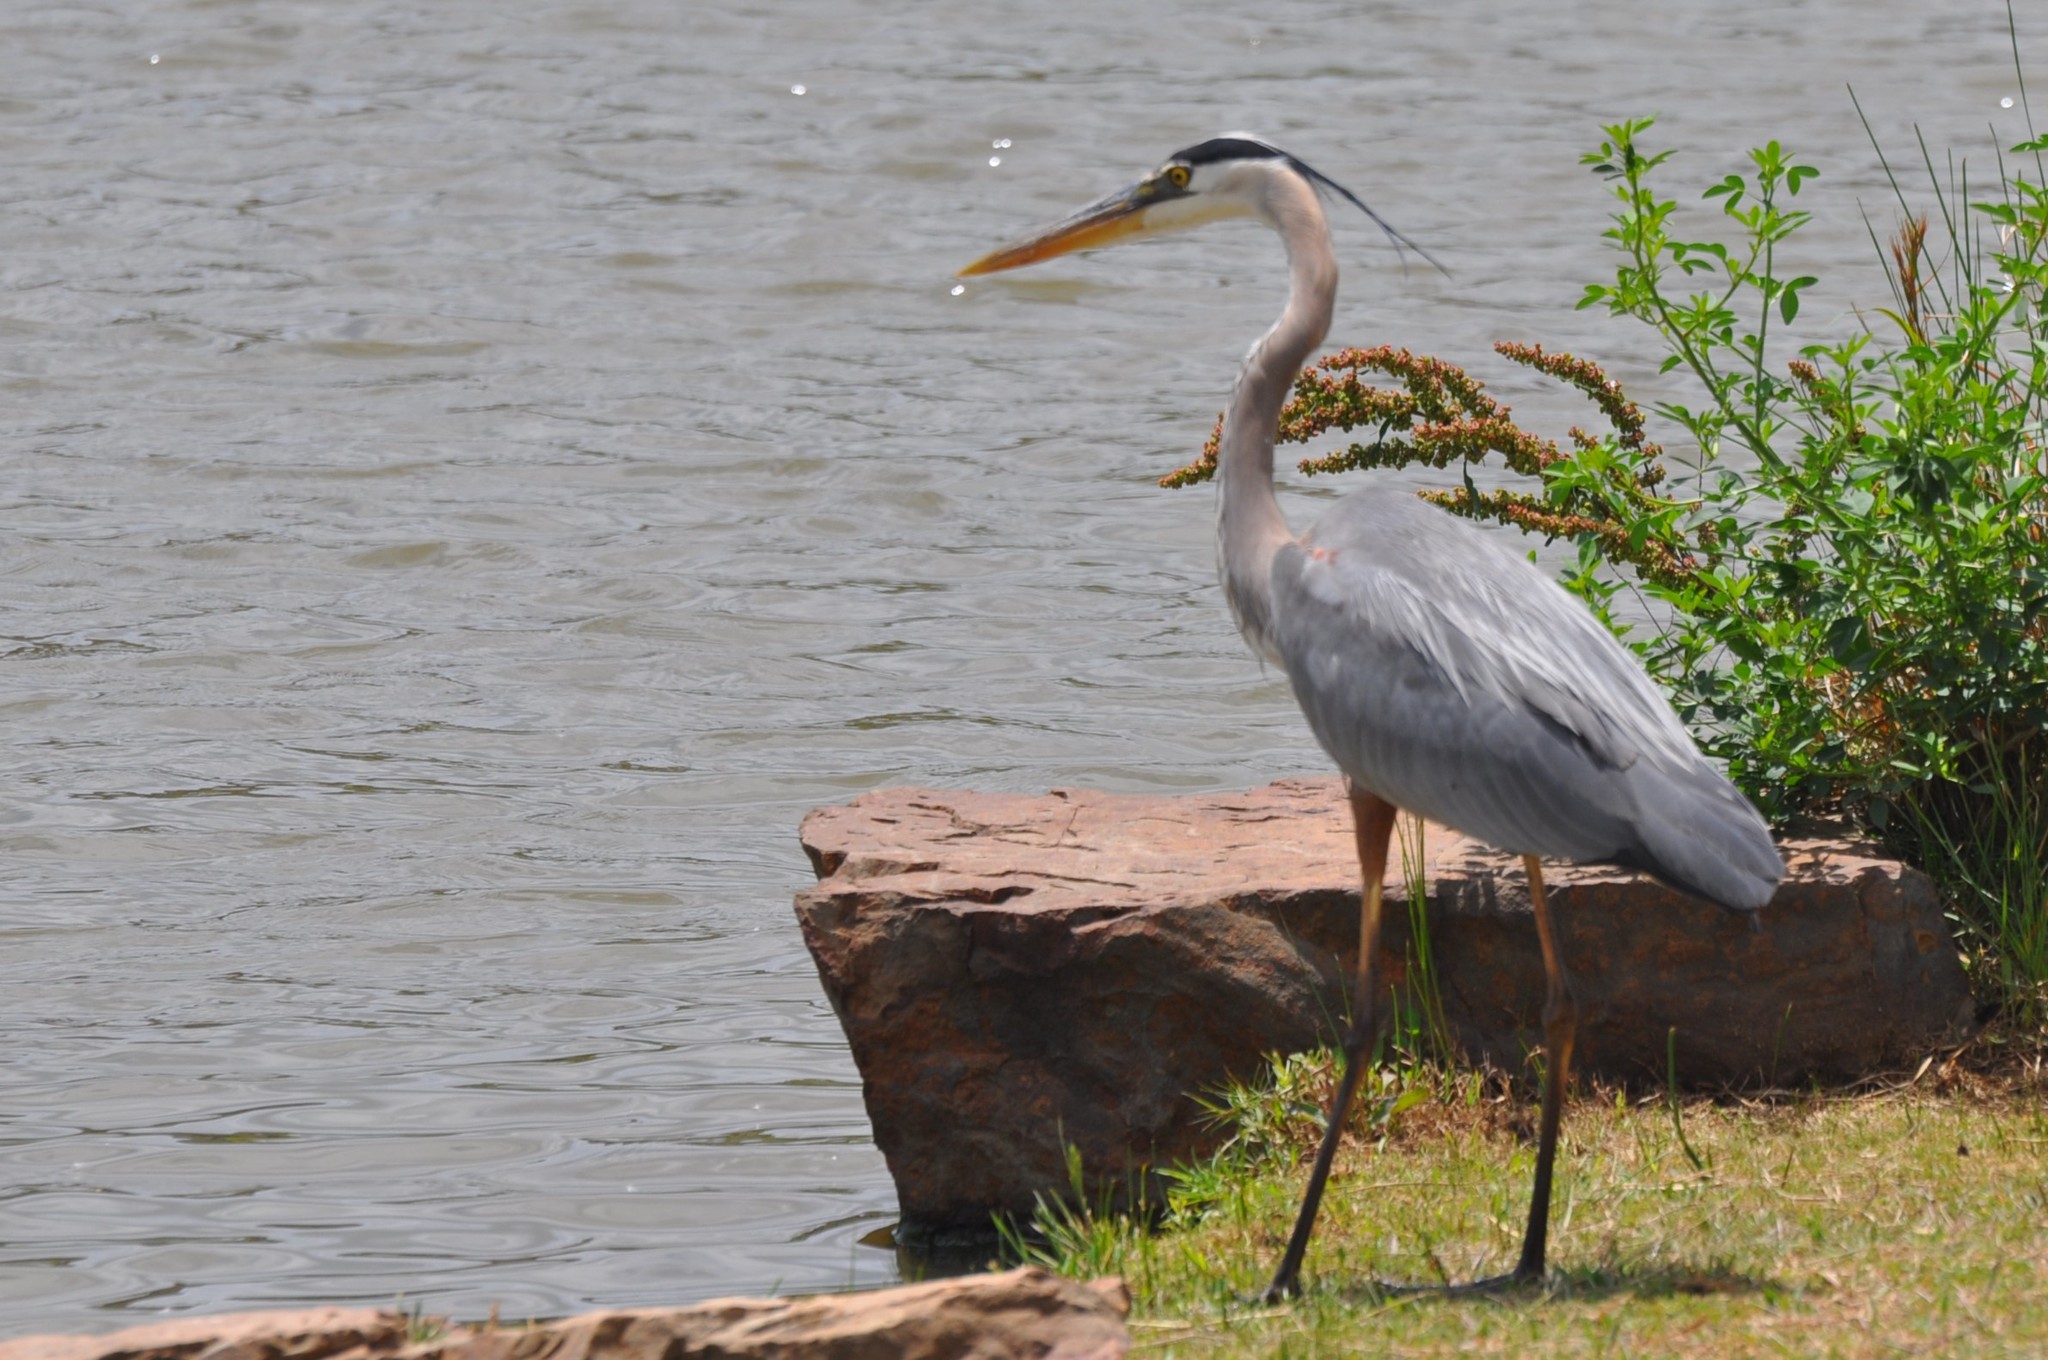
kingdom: Animalia
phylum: Chordata
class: Aves
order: Pelecaniformes
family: Ardeidae
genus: Ardea
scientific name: Ardea herodias
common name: Great blue heron
